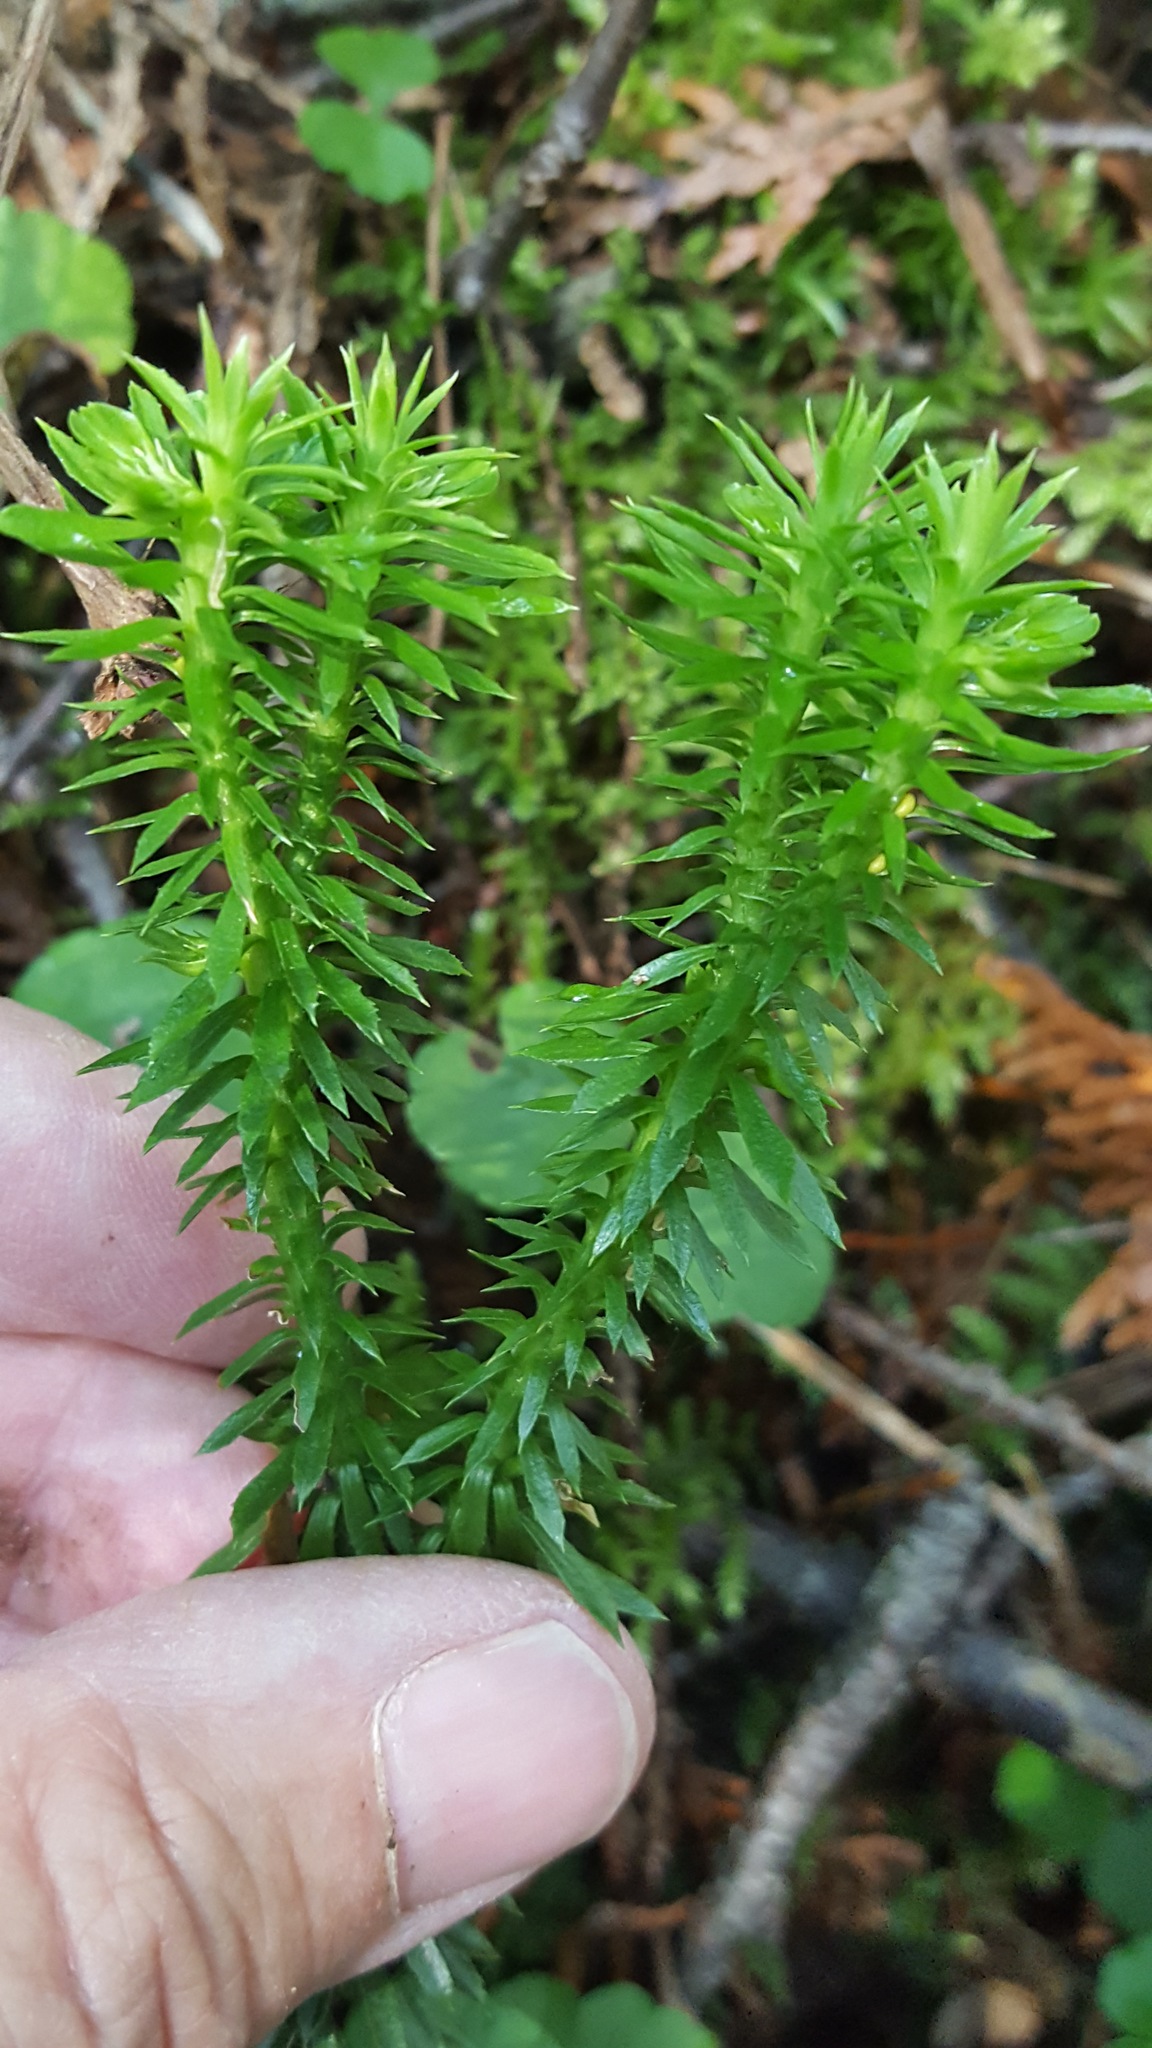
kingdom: Plantae
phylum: Tracheophyta
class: Lycopodiopsida
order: Lycopodiales
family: Lycopodiaceae
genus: Huperzia
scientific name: Huperzia lucidula
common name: Shining clubmoss
